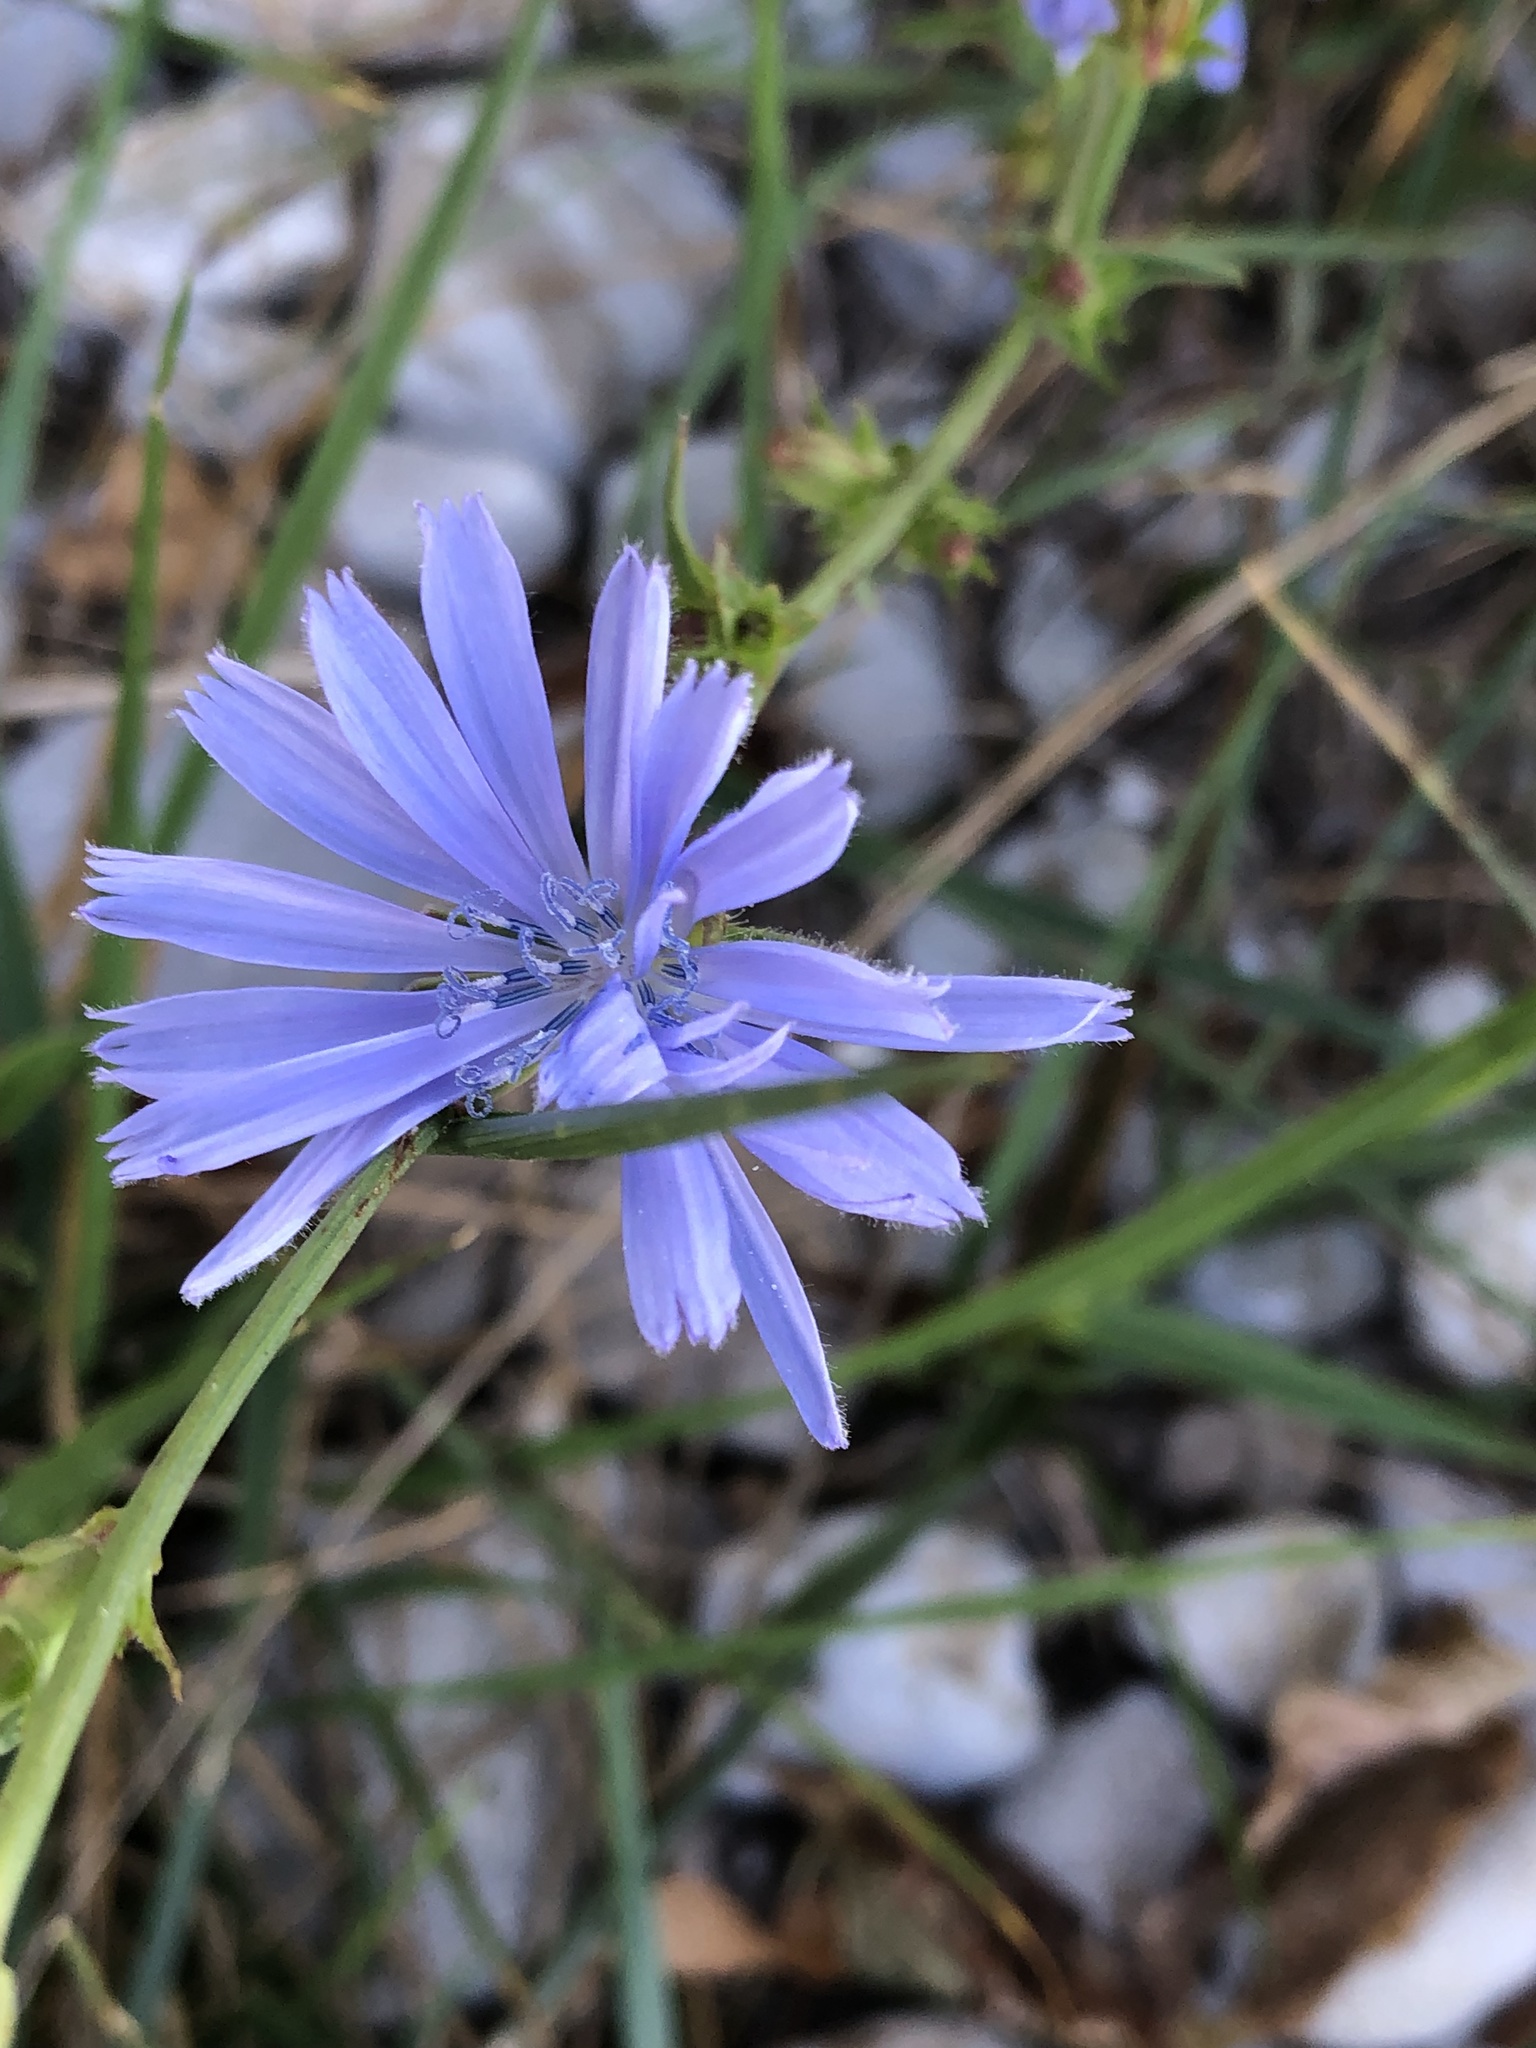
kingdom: Plantae
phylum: Tracheophyta
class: Magnoliopsida
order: Asterales
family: Asteraceae
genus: Cichorium
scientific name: Cichorium intybus
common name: Chicory
